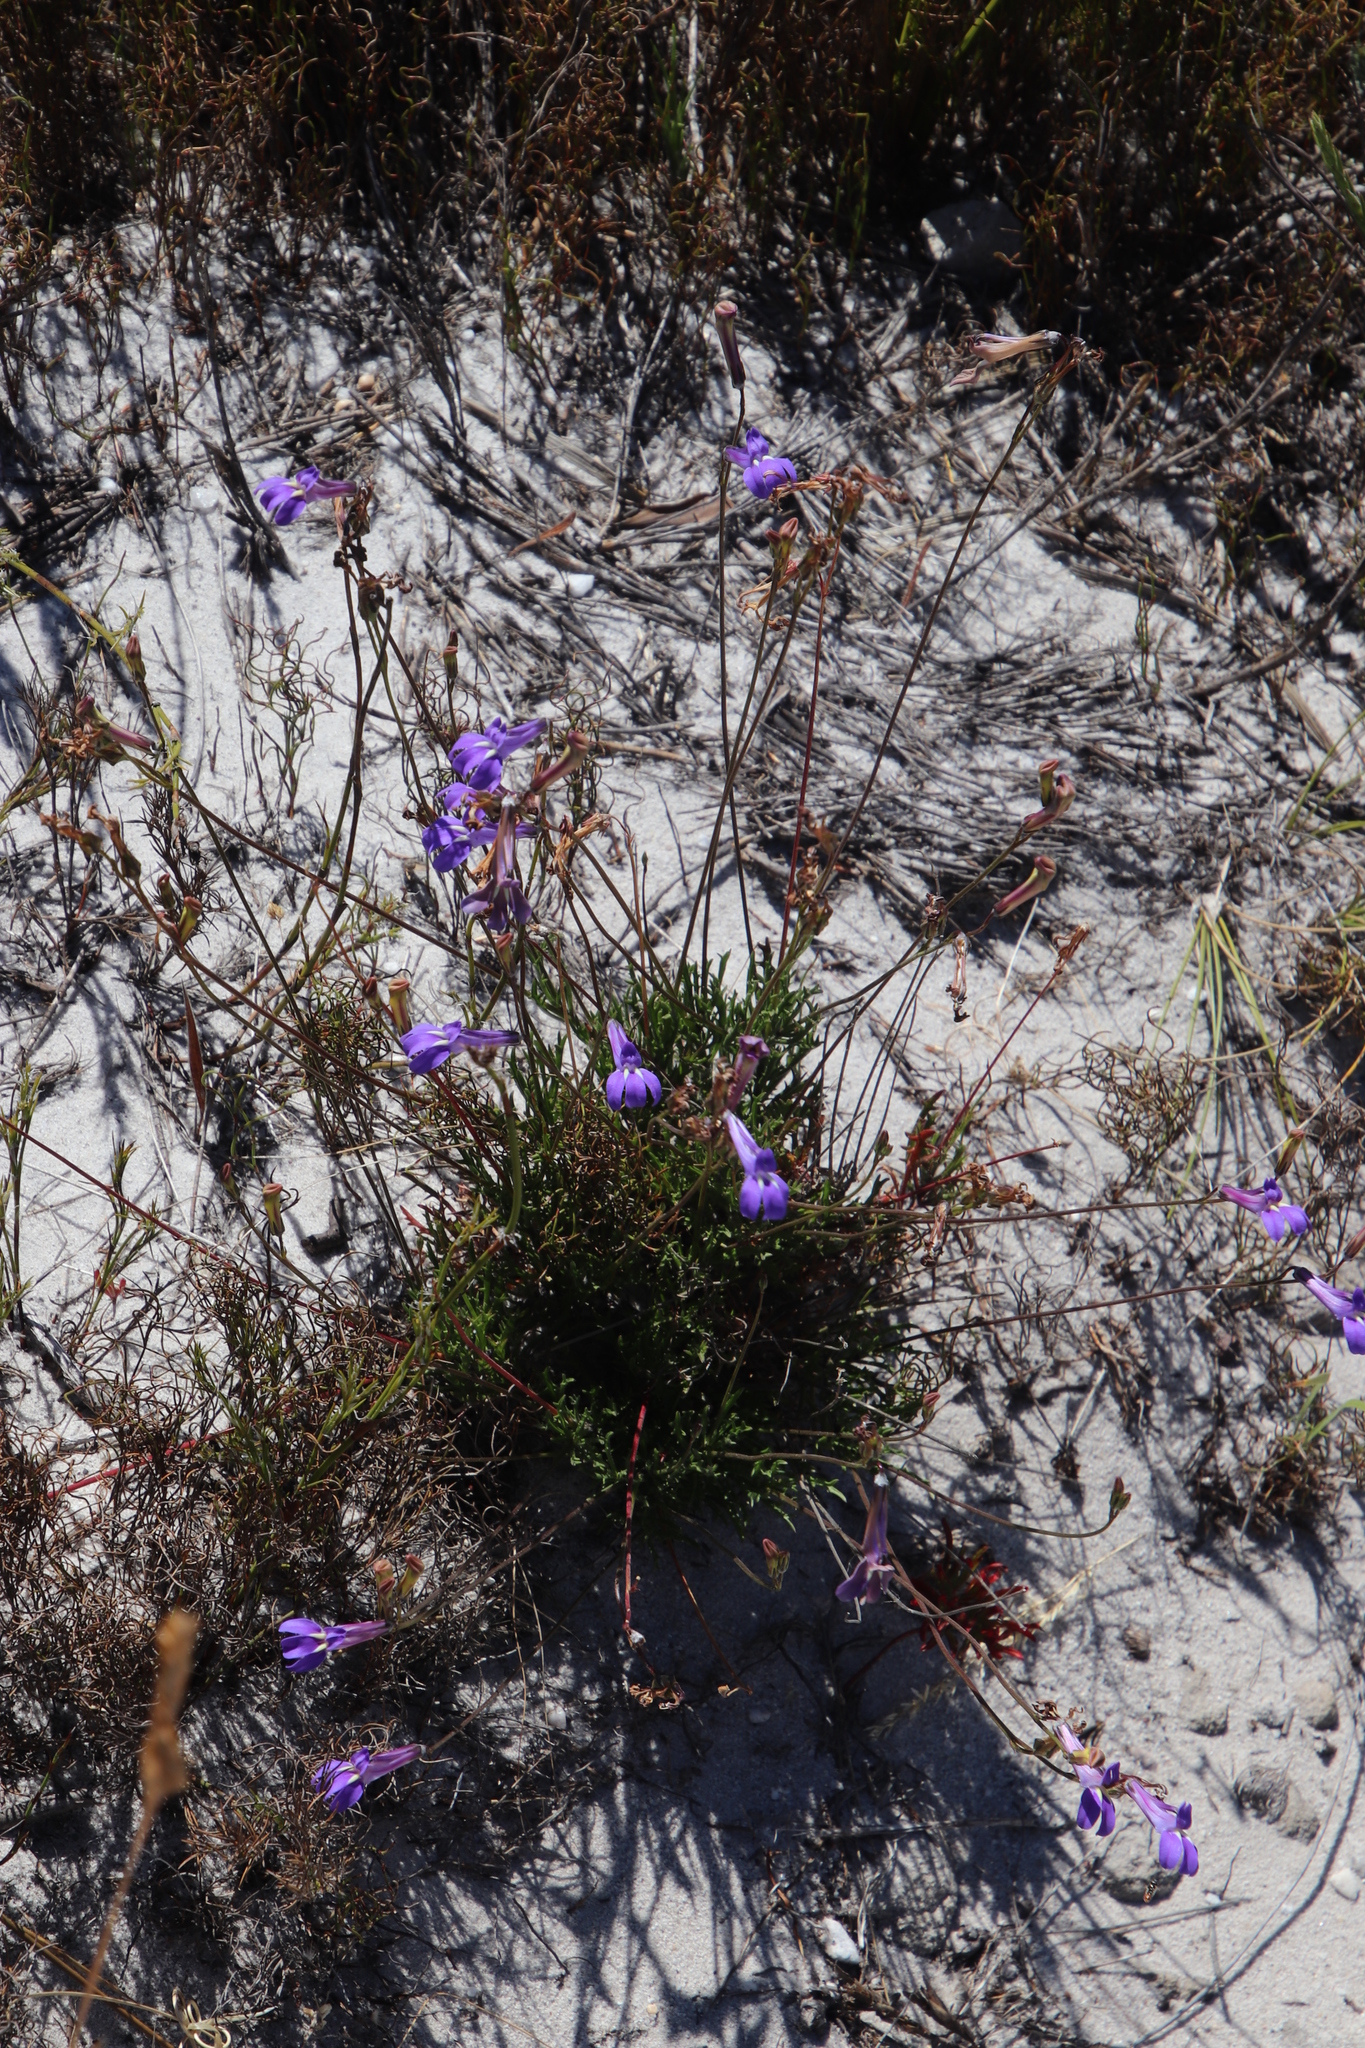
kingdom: Plantae
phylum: Tracheophyta
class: Magnoliopsida
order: Asterales
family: Campanulaceae
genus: Lobelia
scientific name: Lobelia coronopifolia
